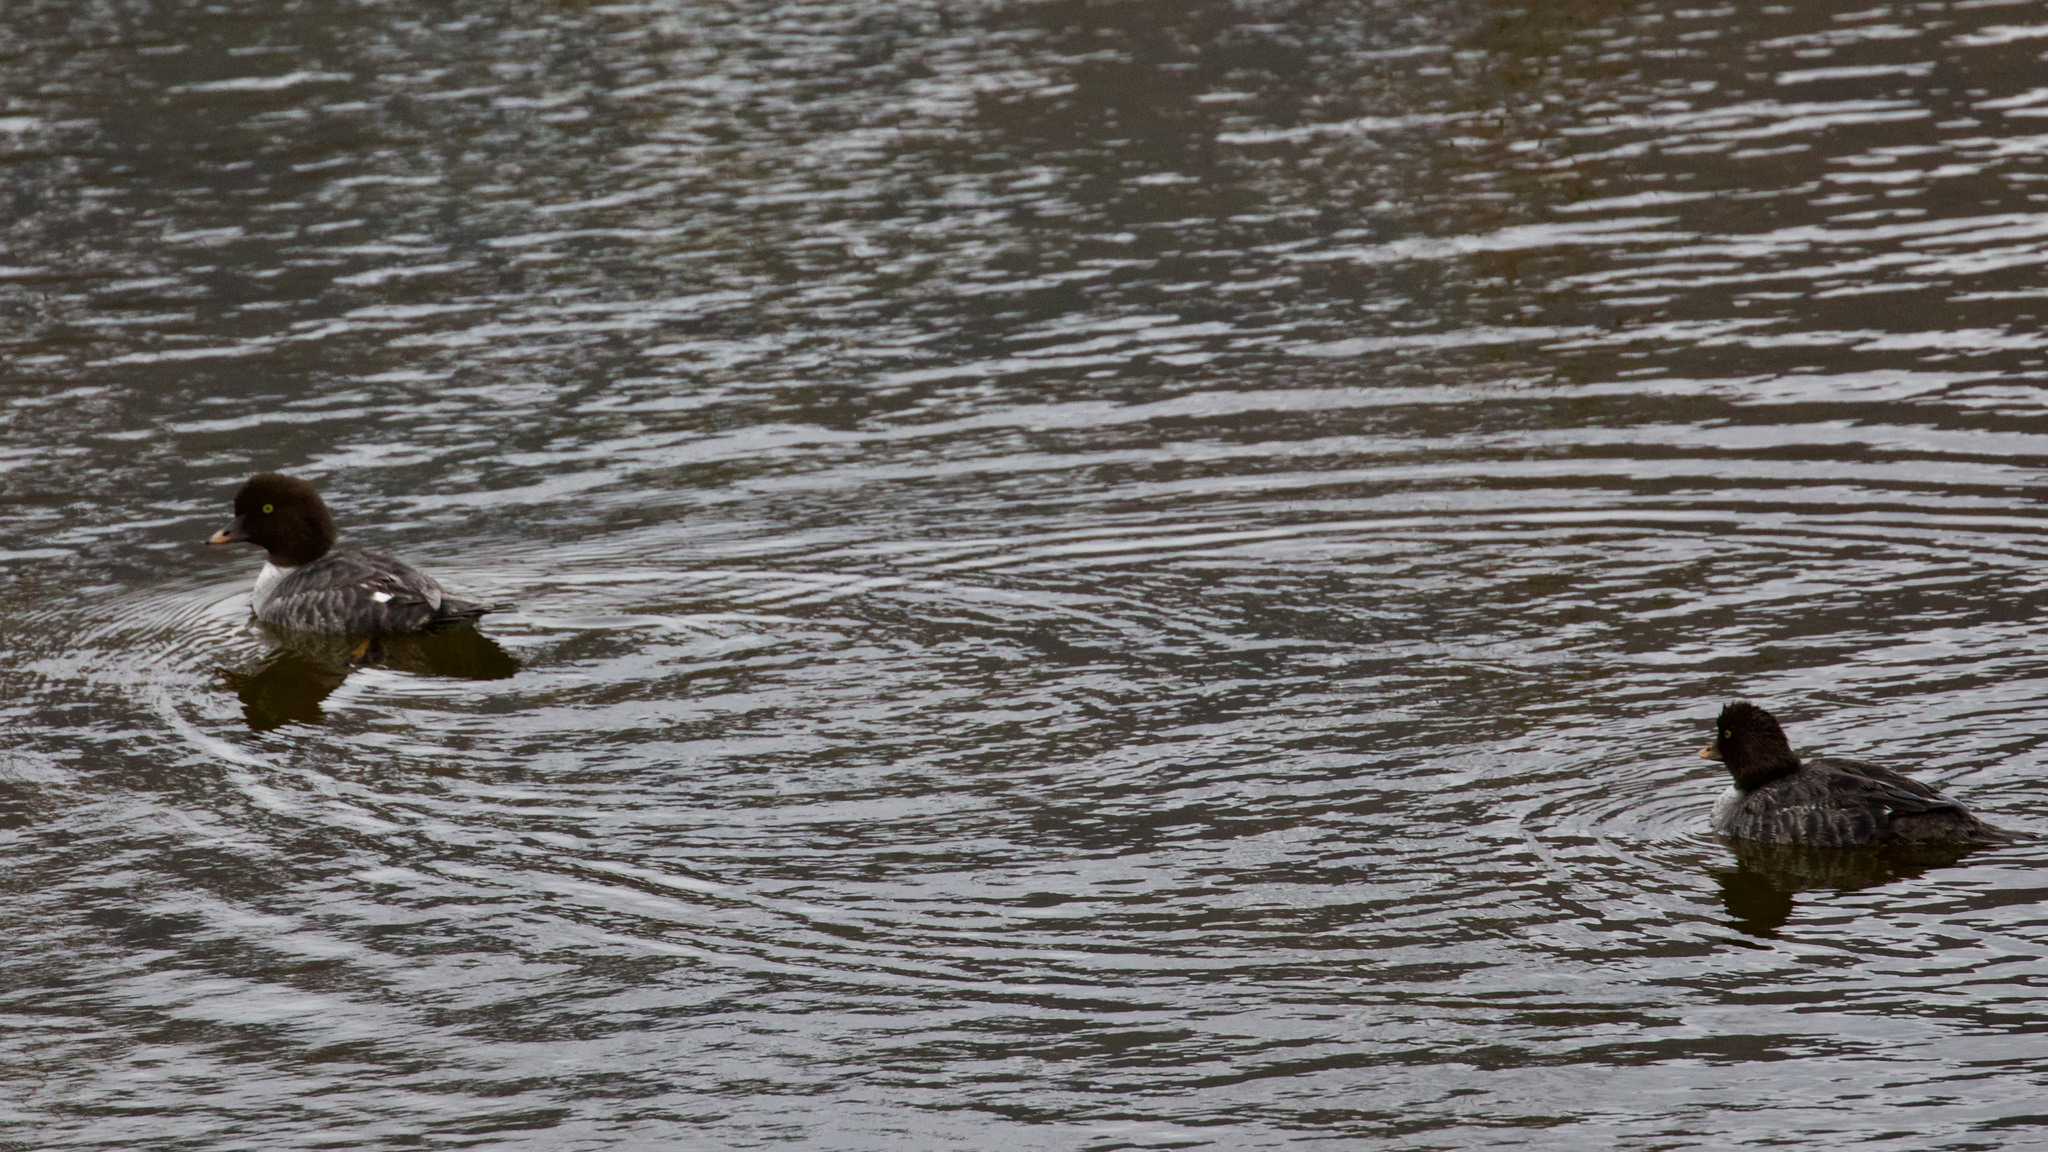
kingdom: Animalia
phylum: Chordata
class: Aves
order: Anseriformes
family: Anatidae
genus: Bucephala
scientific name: Bucephala islandica
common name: Barrow's goldeneye
